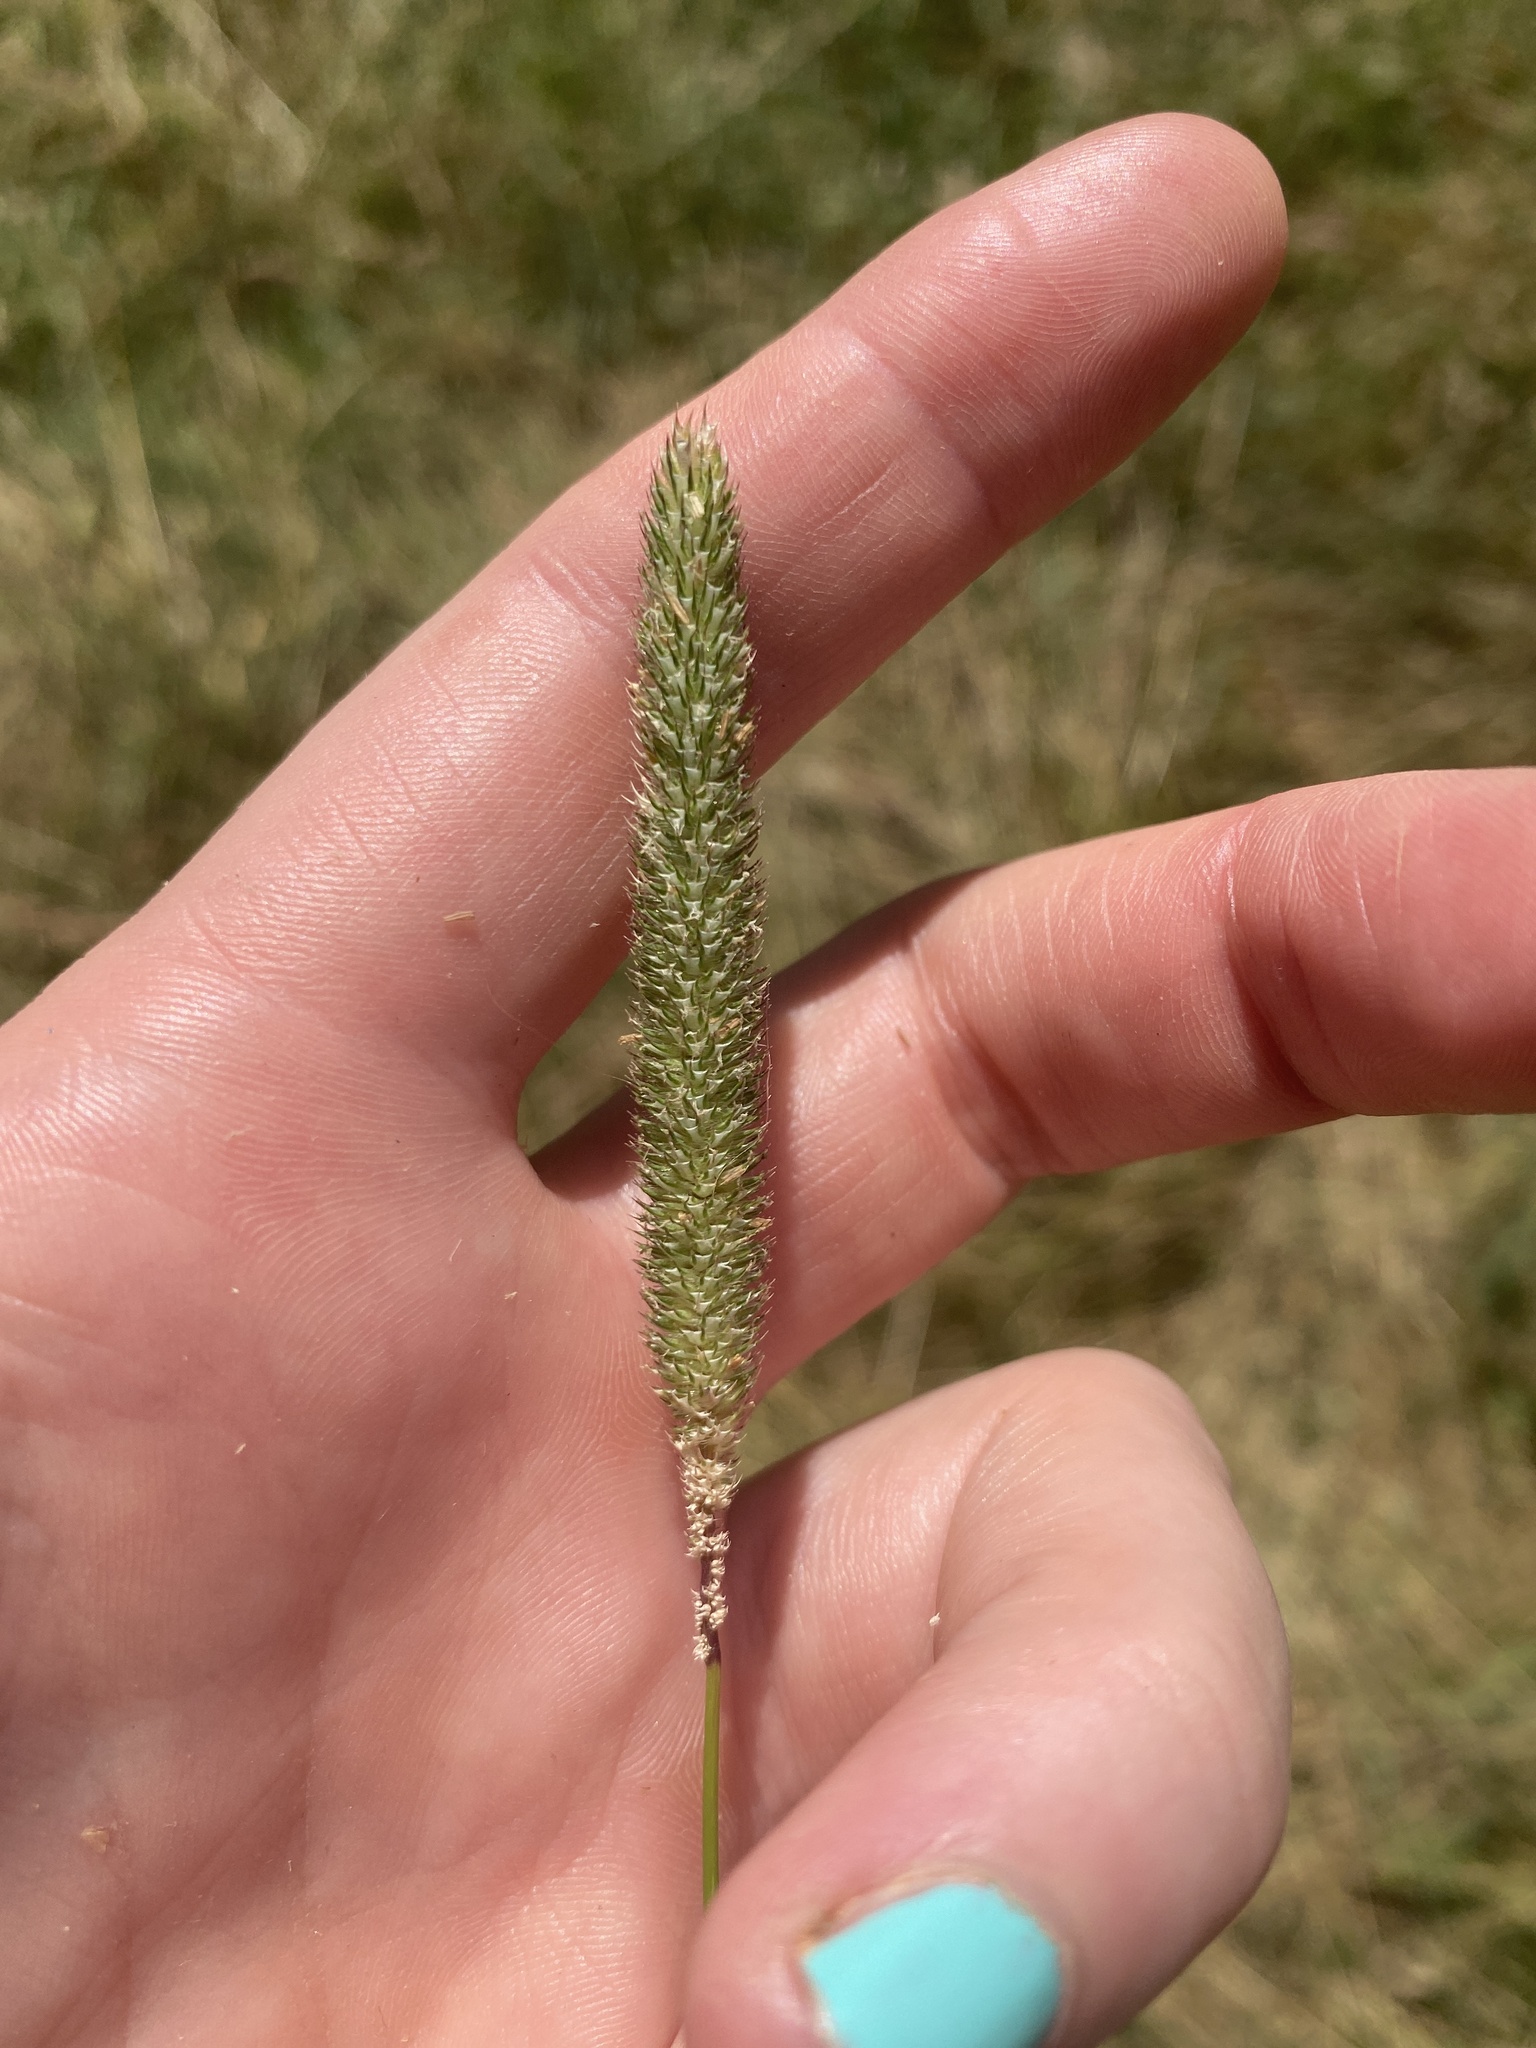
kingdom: Plantae
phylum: Tracheophyta
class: Liliopsida
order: Poales
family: Poaceae
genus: Phleum
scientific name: Phleum pratense
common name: Timothy grass
